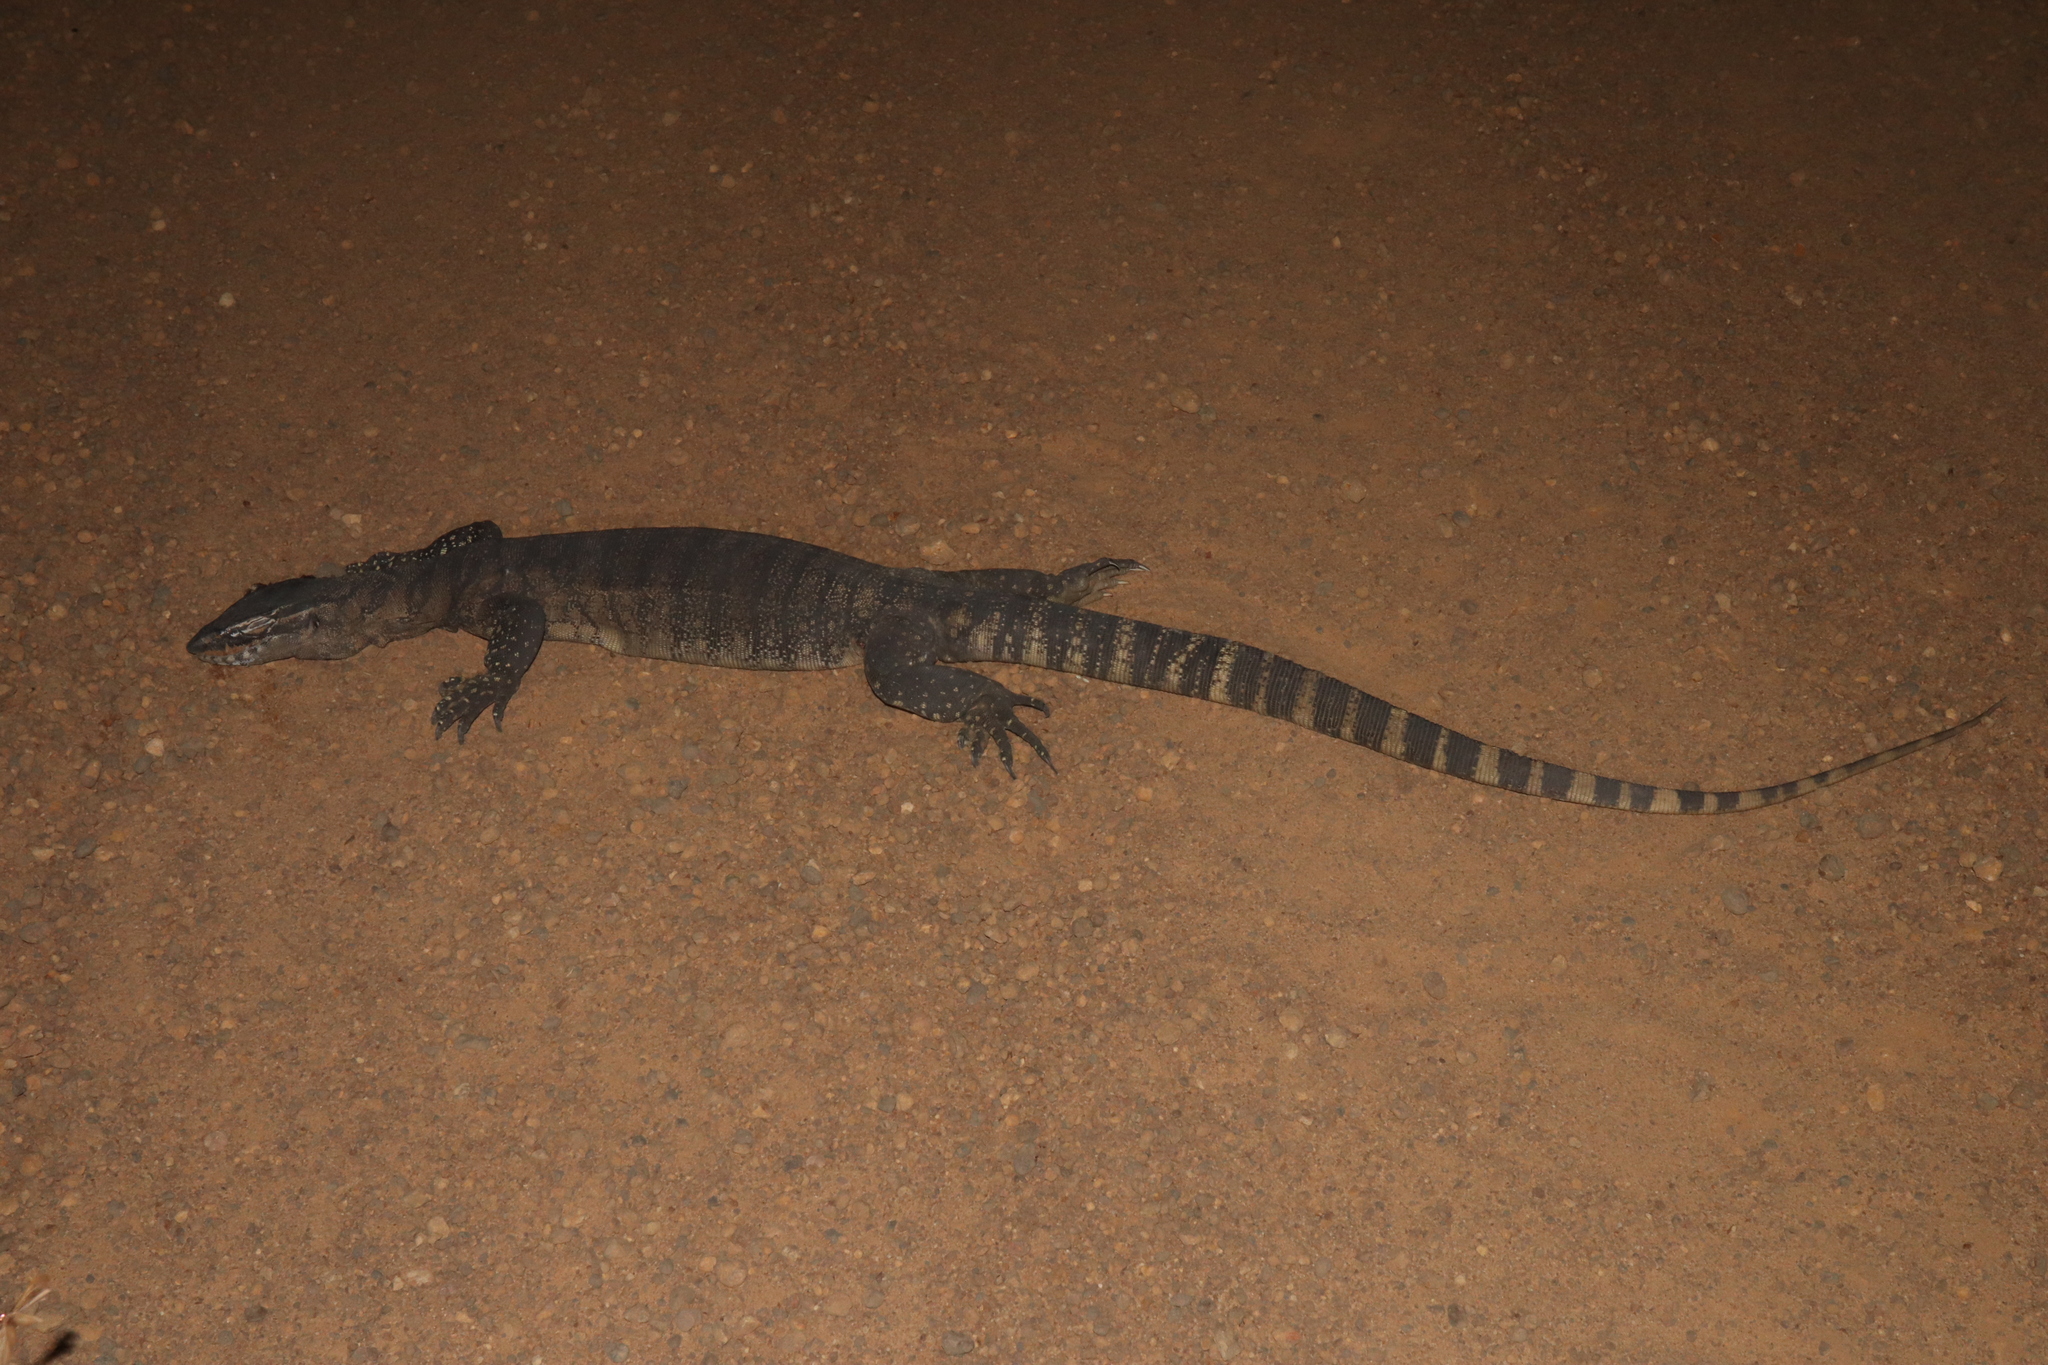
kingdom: Animalia
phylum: Chordata
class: Squamata
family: Varanidae
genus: Varanus
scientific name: Varanus rosenbergi
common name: Heath monitor
